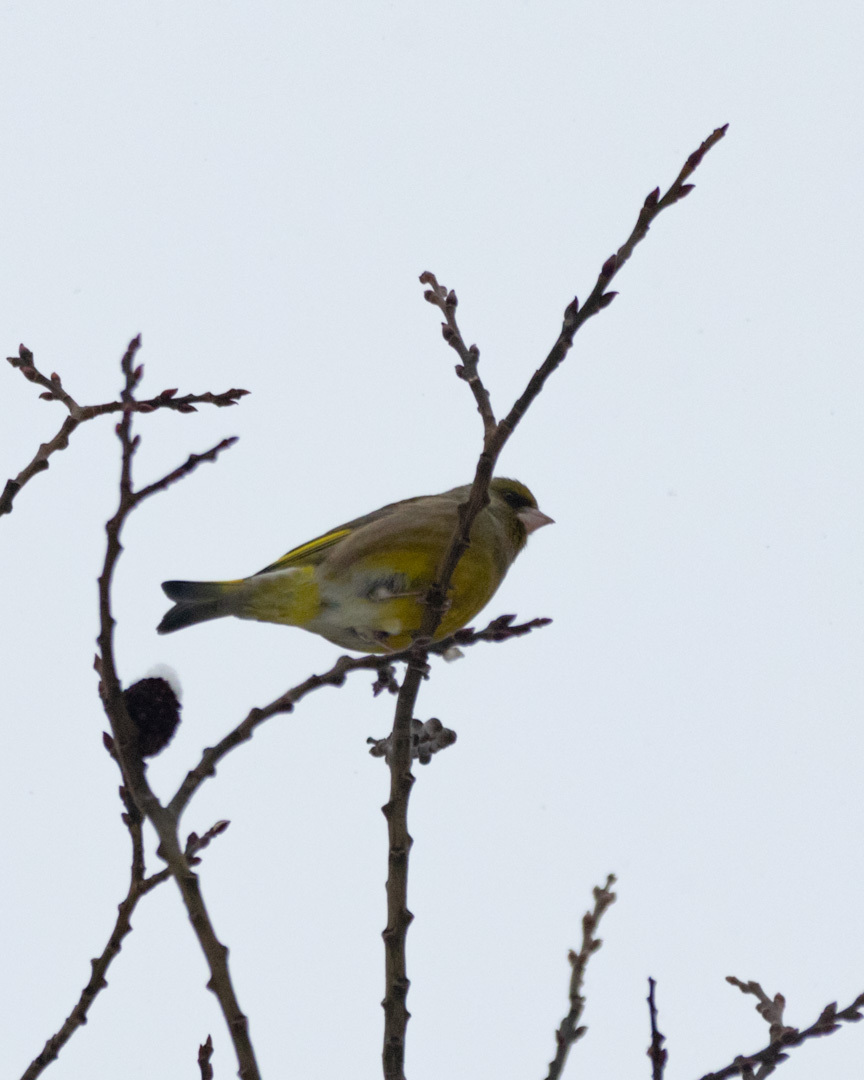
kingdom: Plantae
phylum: Tracheophyta
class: Liliopsida
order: Poales
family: Poaceae
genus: Chloris
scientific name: Chloris chloris
